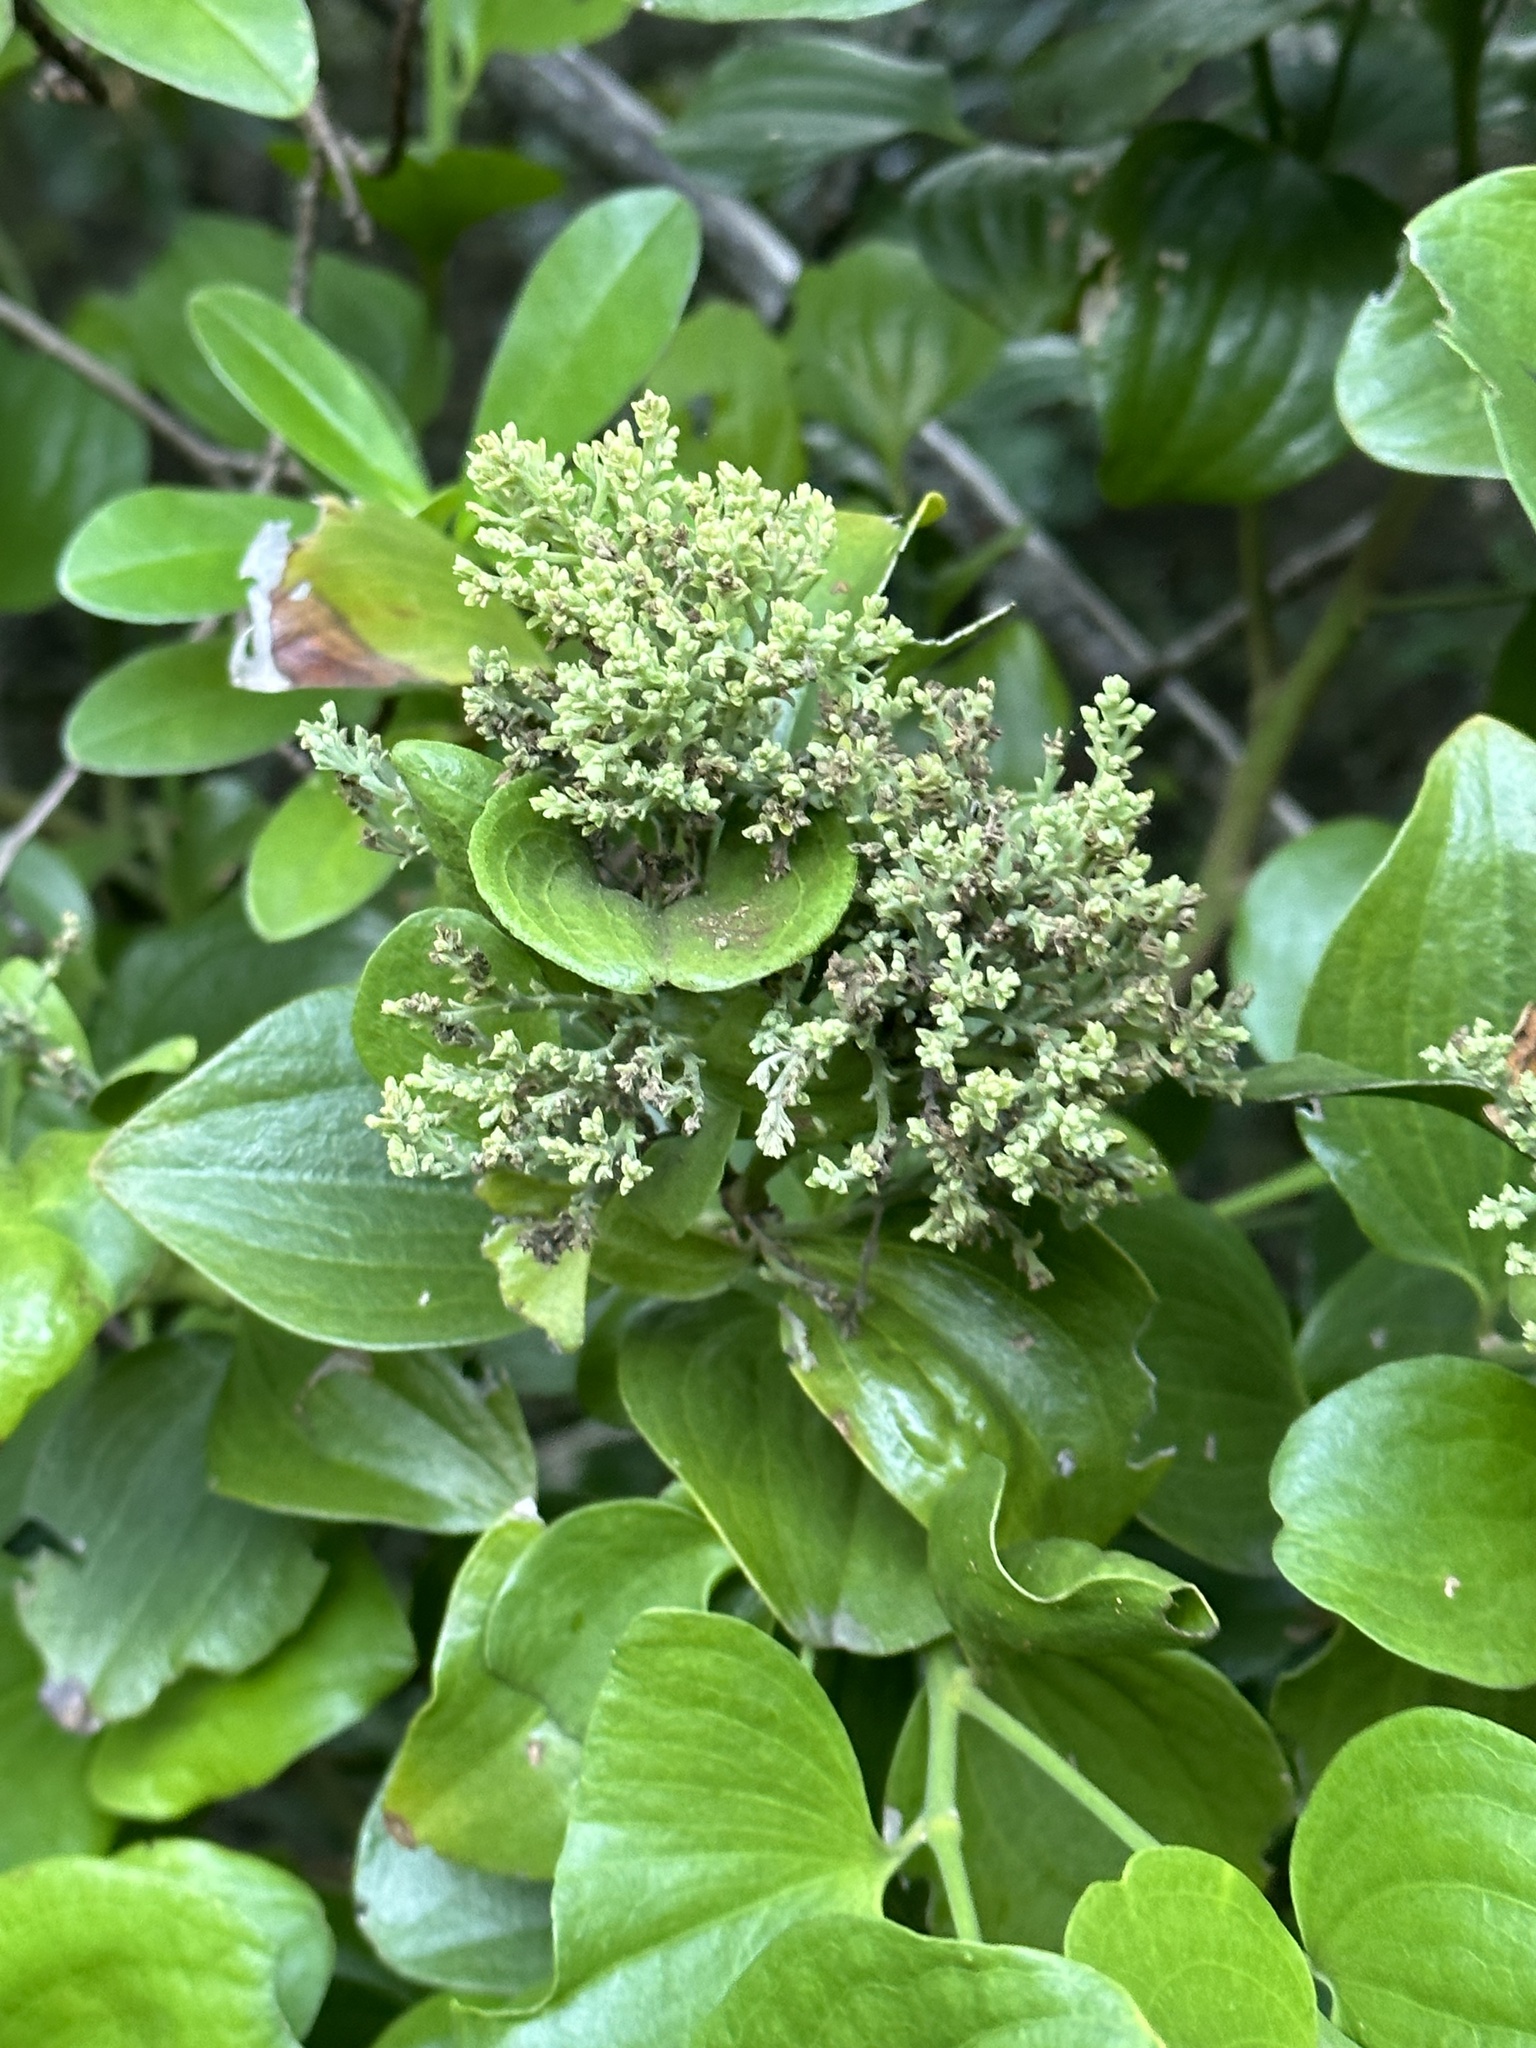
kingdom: Plantae
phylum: Tracheophyta
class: Magnoliopsida
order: Santalales
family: Santalaceae
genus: Exocarpos
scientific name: Exocarpos latifolius
